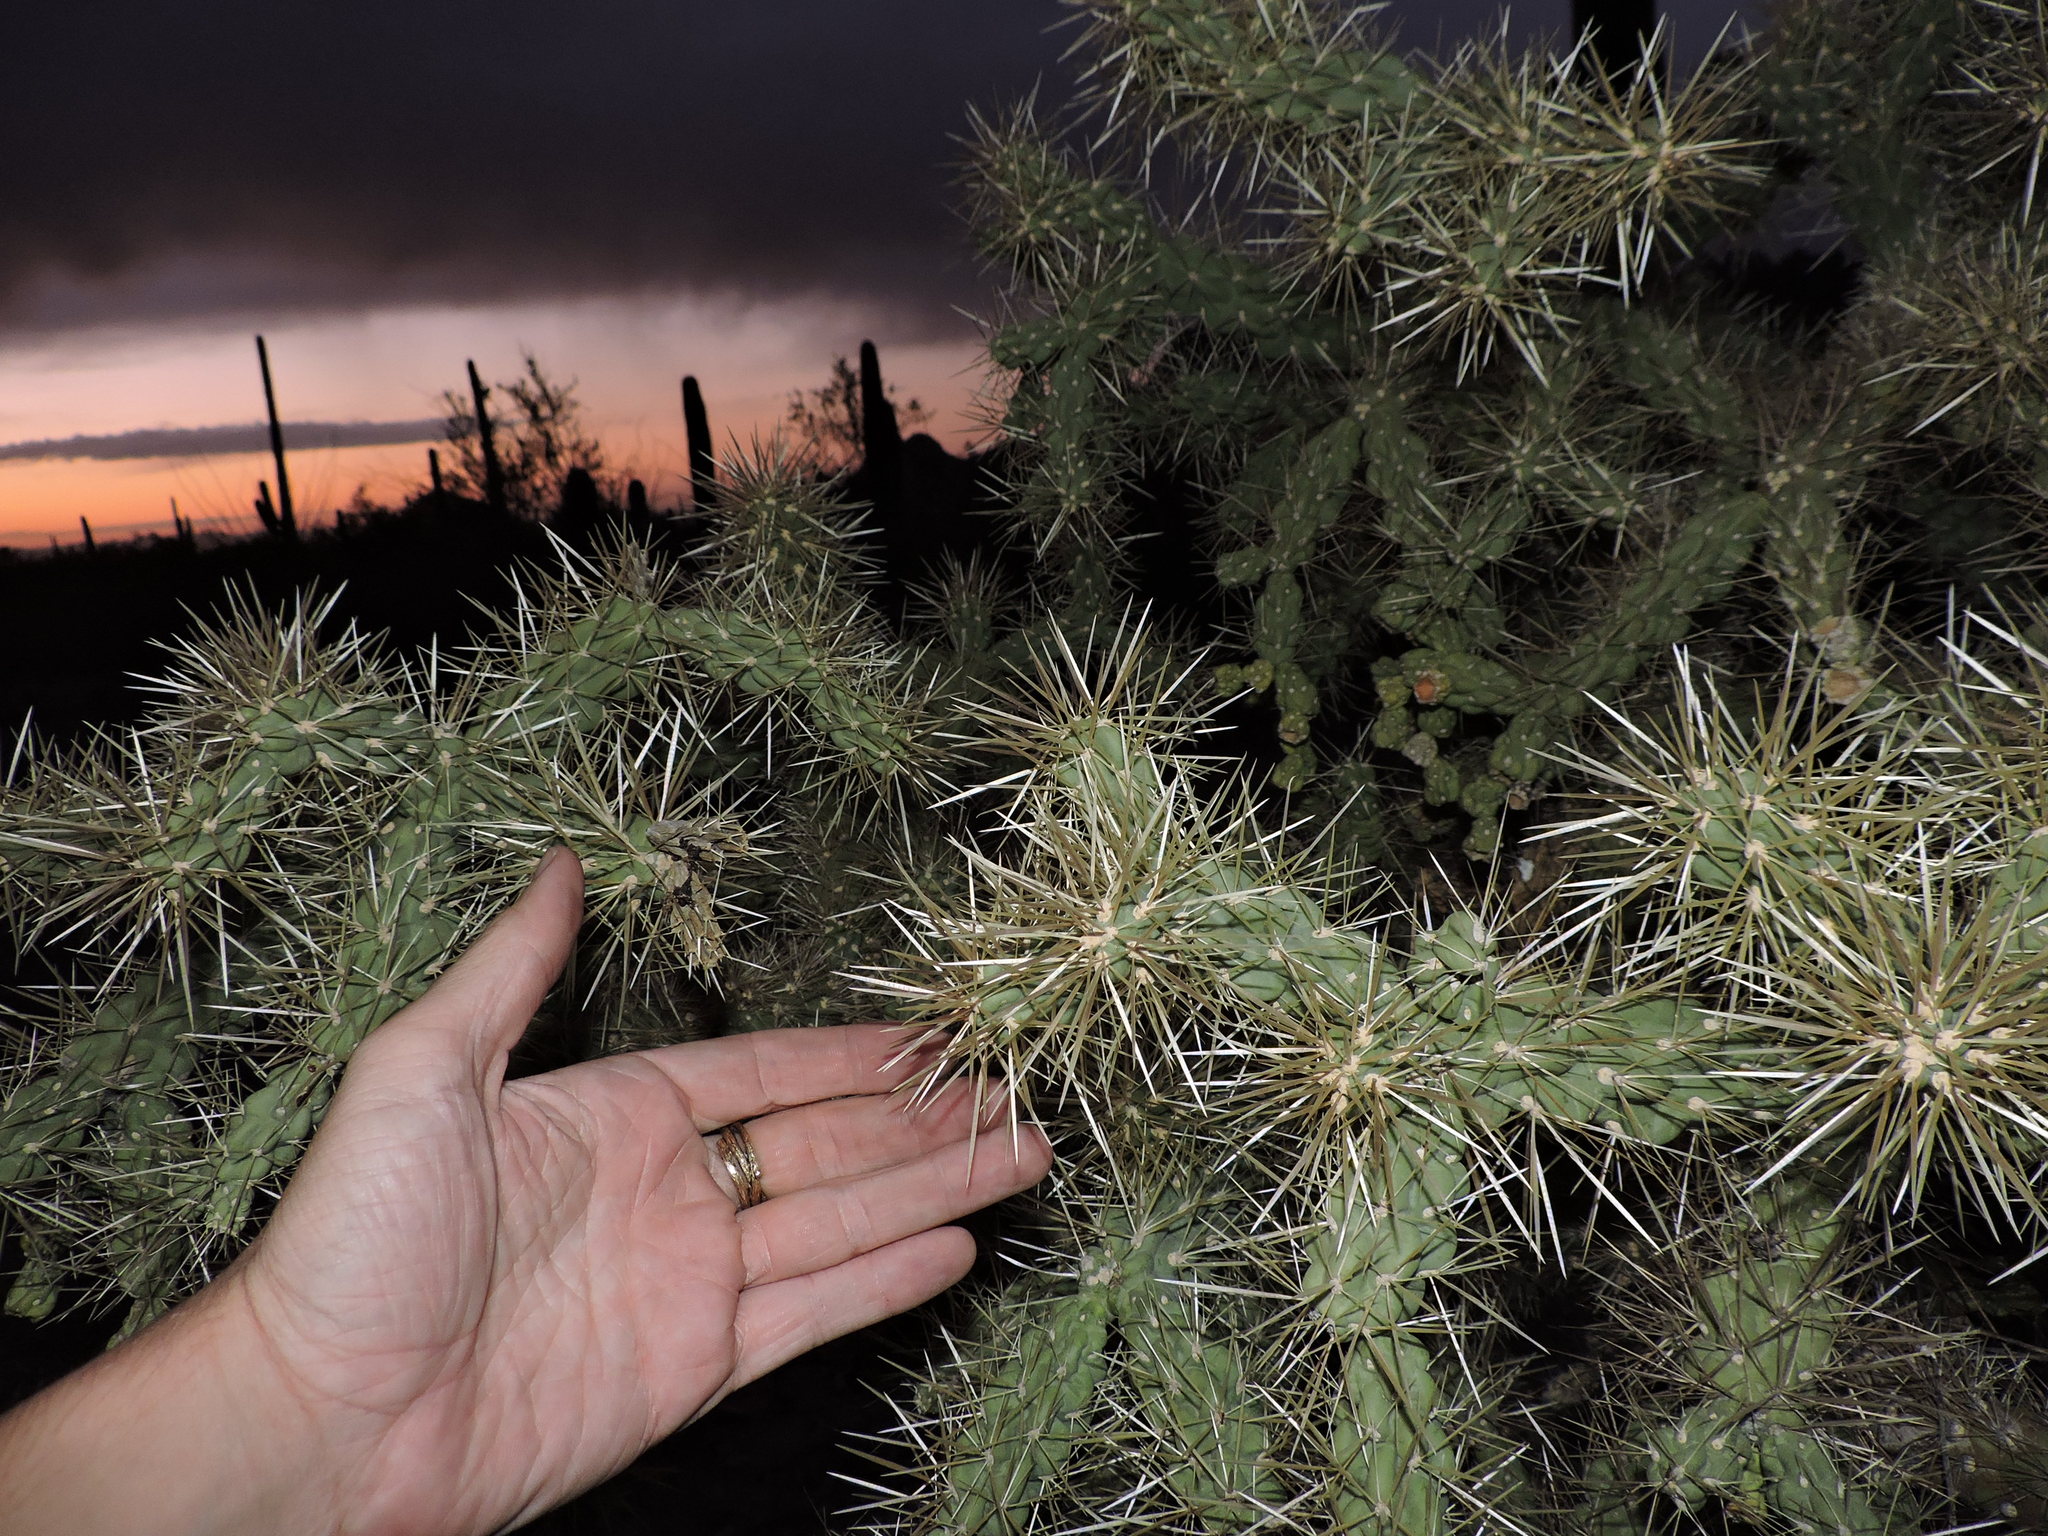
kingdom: Plantae
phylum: Tracheophyta
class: Magnoliopsida
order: Caryophyllales
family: Cactaceae
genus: Cylindropuntia
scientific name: Cylindropuntia fulgida
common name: Jumping cholla
